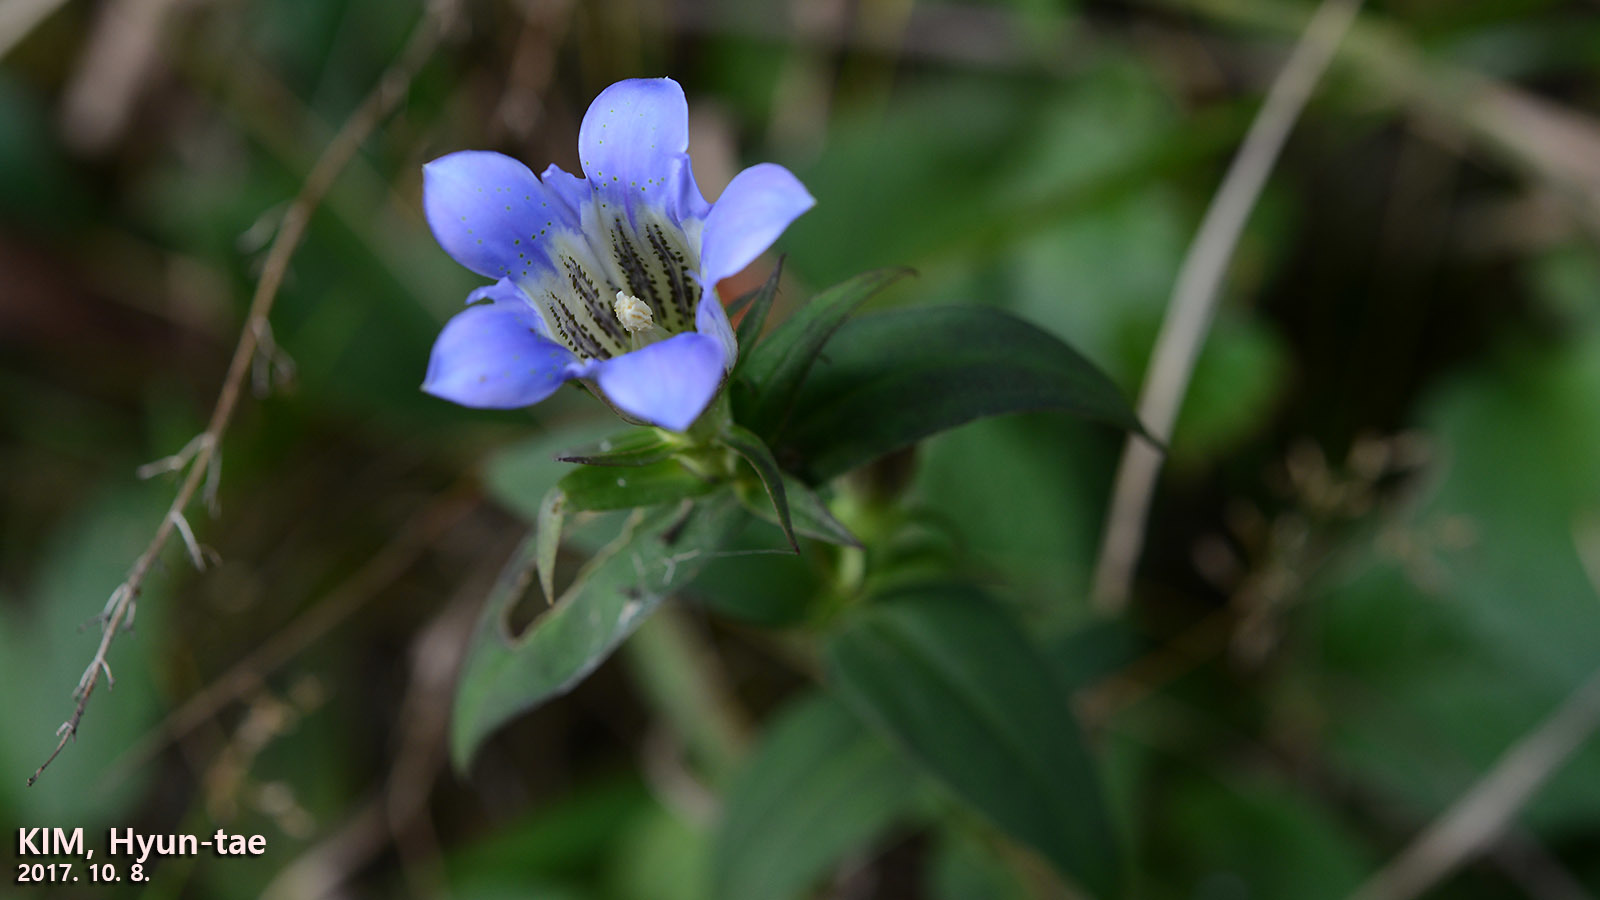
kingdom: Plantae
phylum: Tracheophyta
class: Magnoliopsida
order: Gentianales
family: Gentianaceae
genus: Gentiana
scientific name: Gentiana scabra
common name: Scabrous gentian
